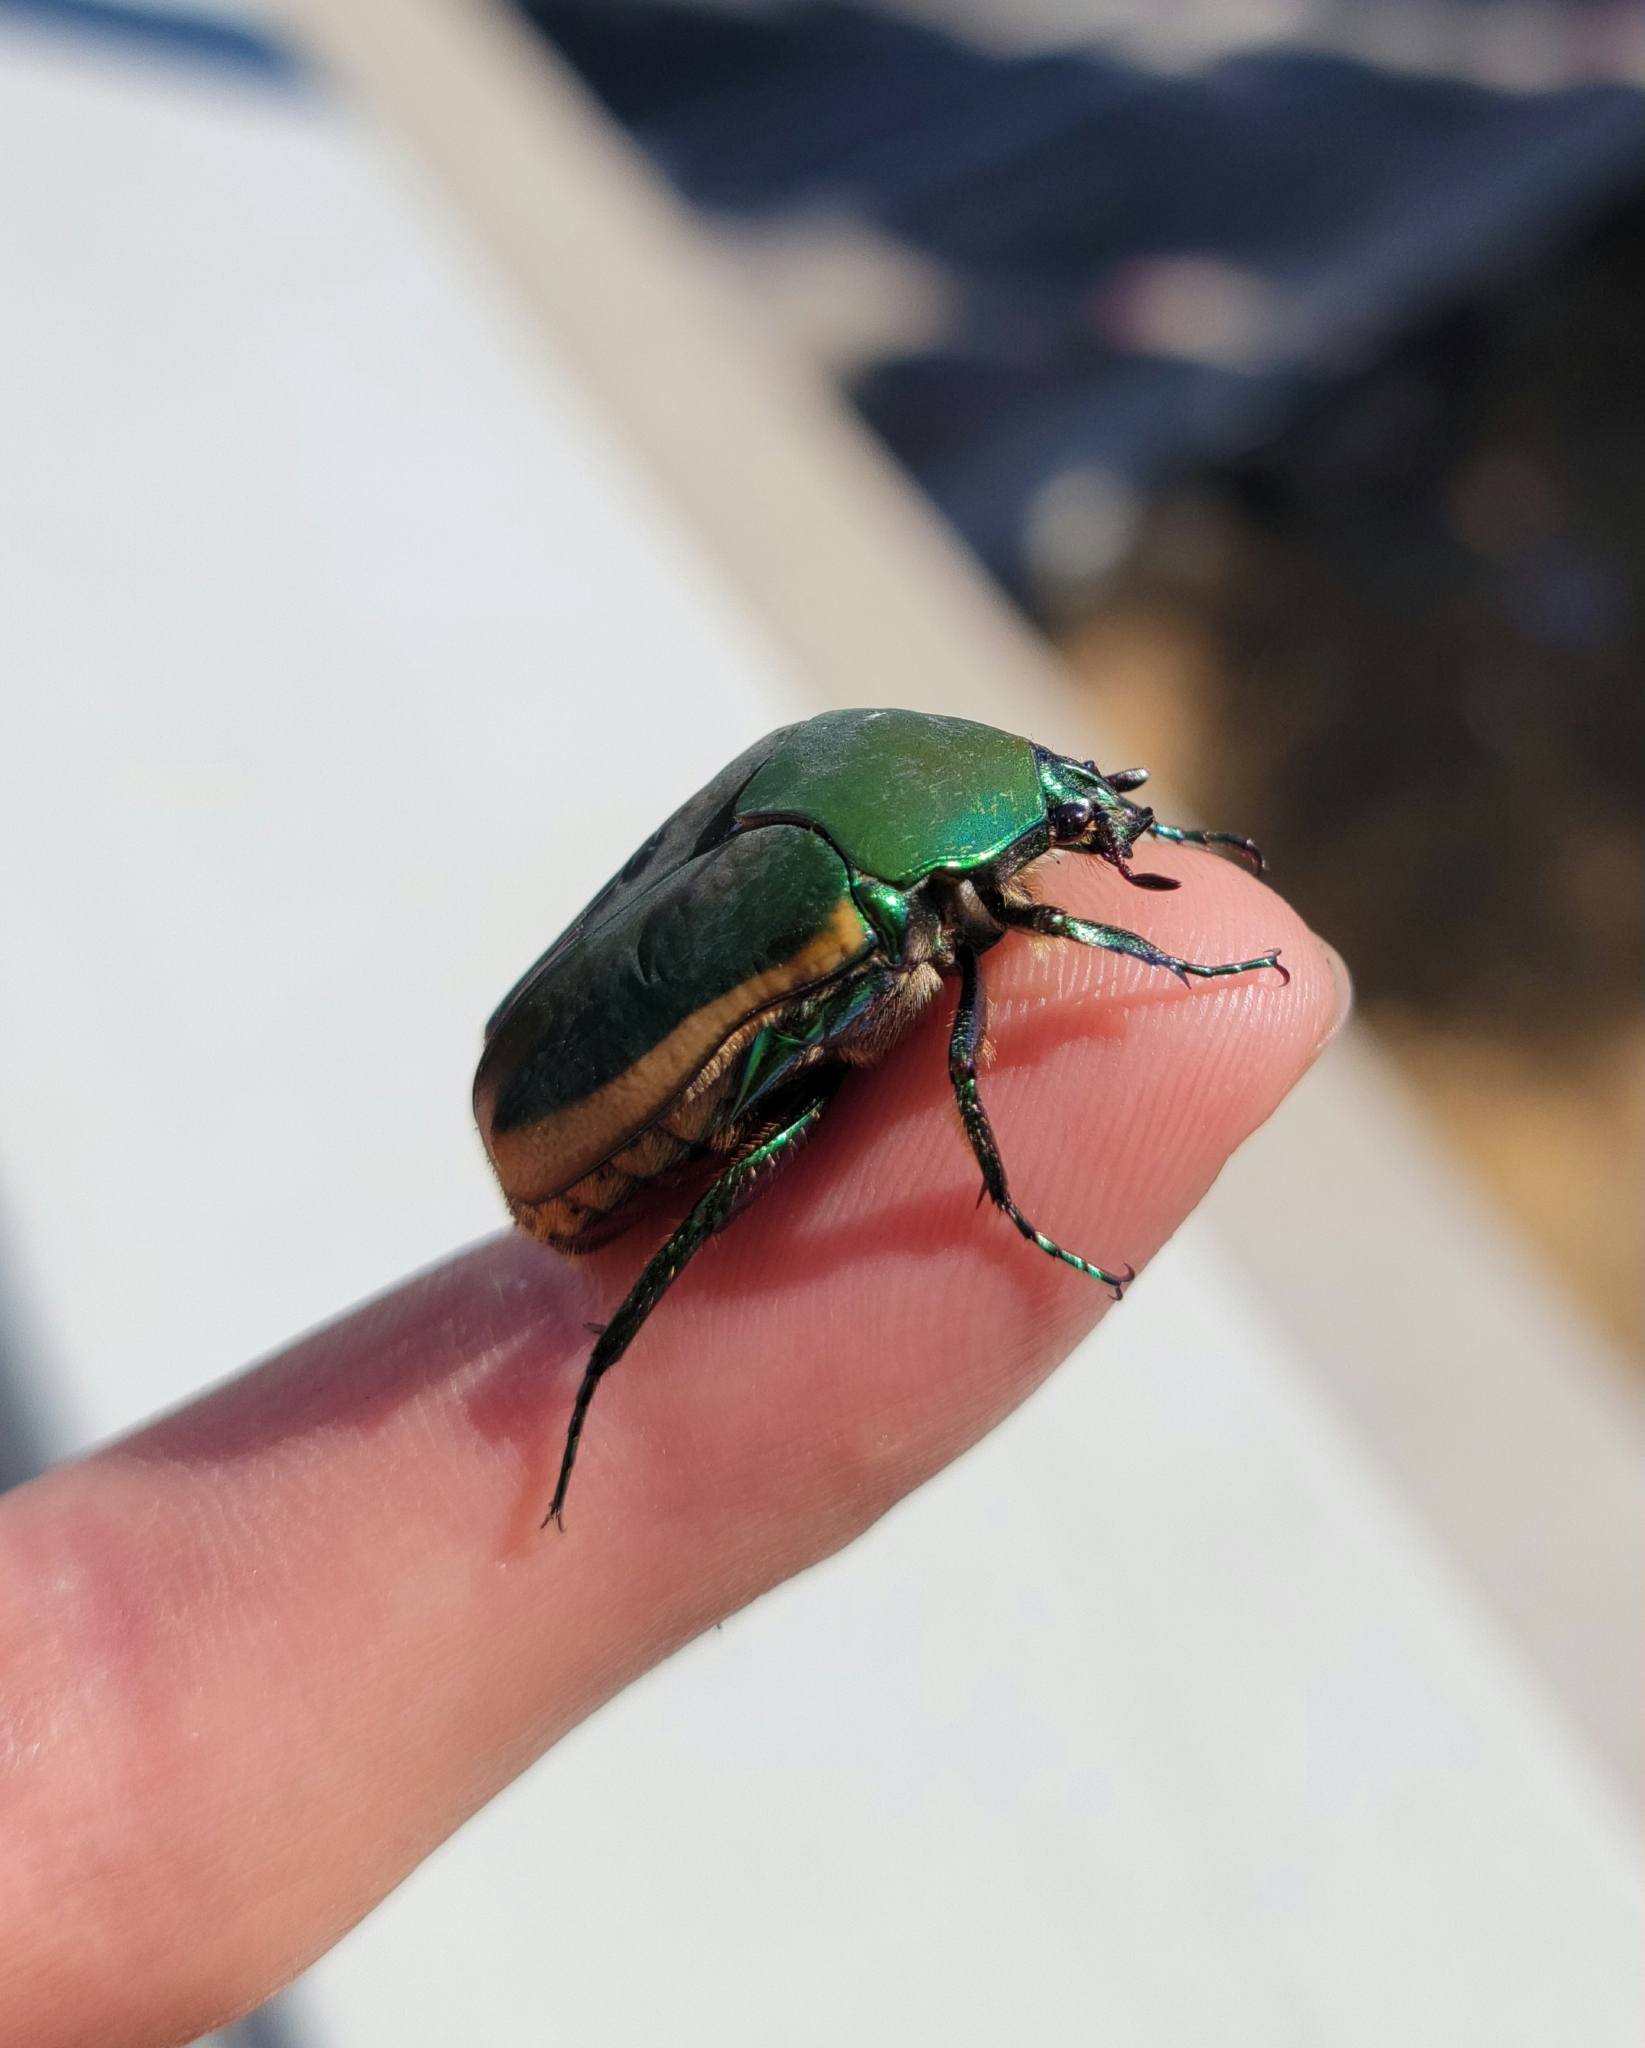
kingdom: Animalia
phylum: Arthropoda
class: Insecta
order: Coleoptera
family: Scarabaeidae
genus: Cotinis
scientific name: Cotinis mutabilis
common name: Figeater beetle
